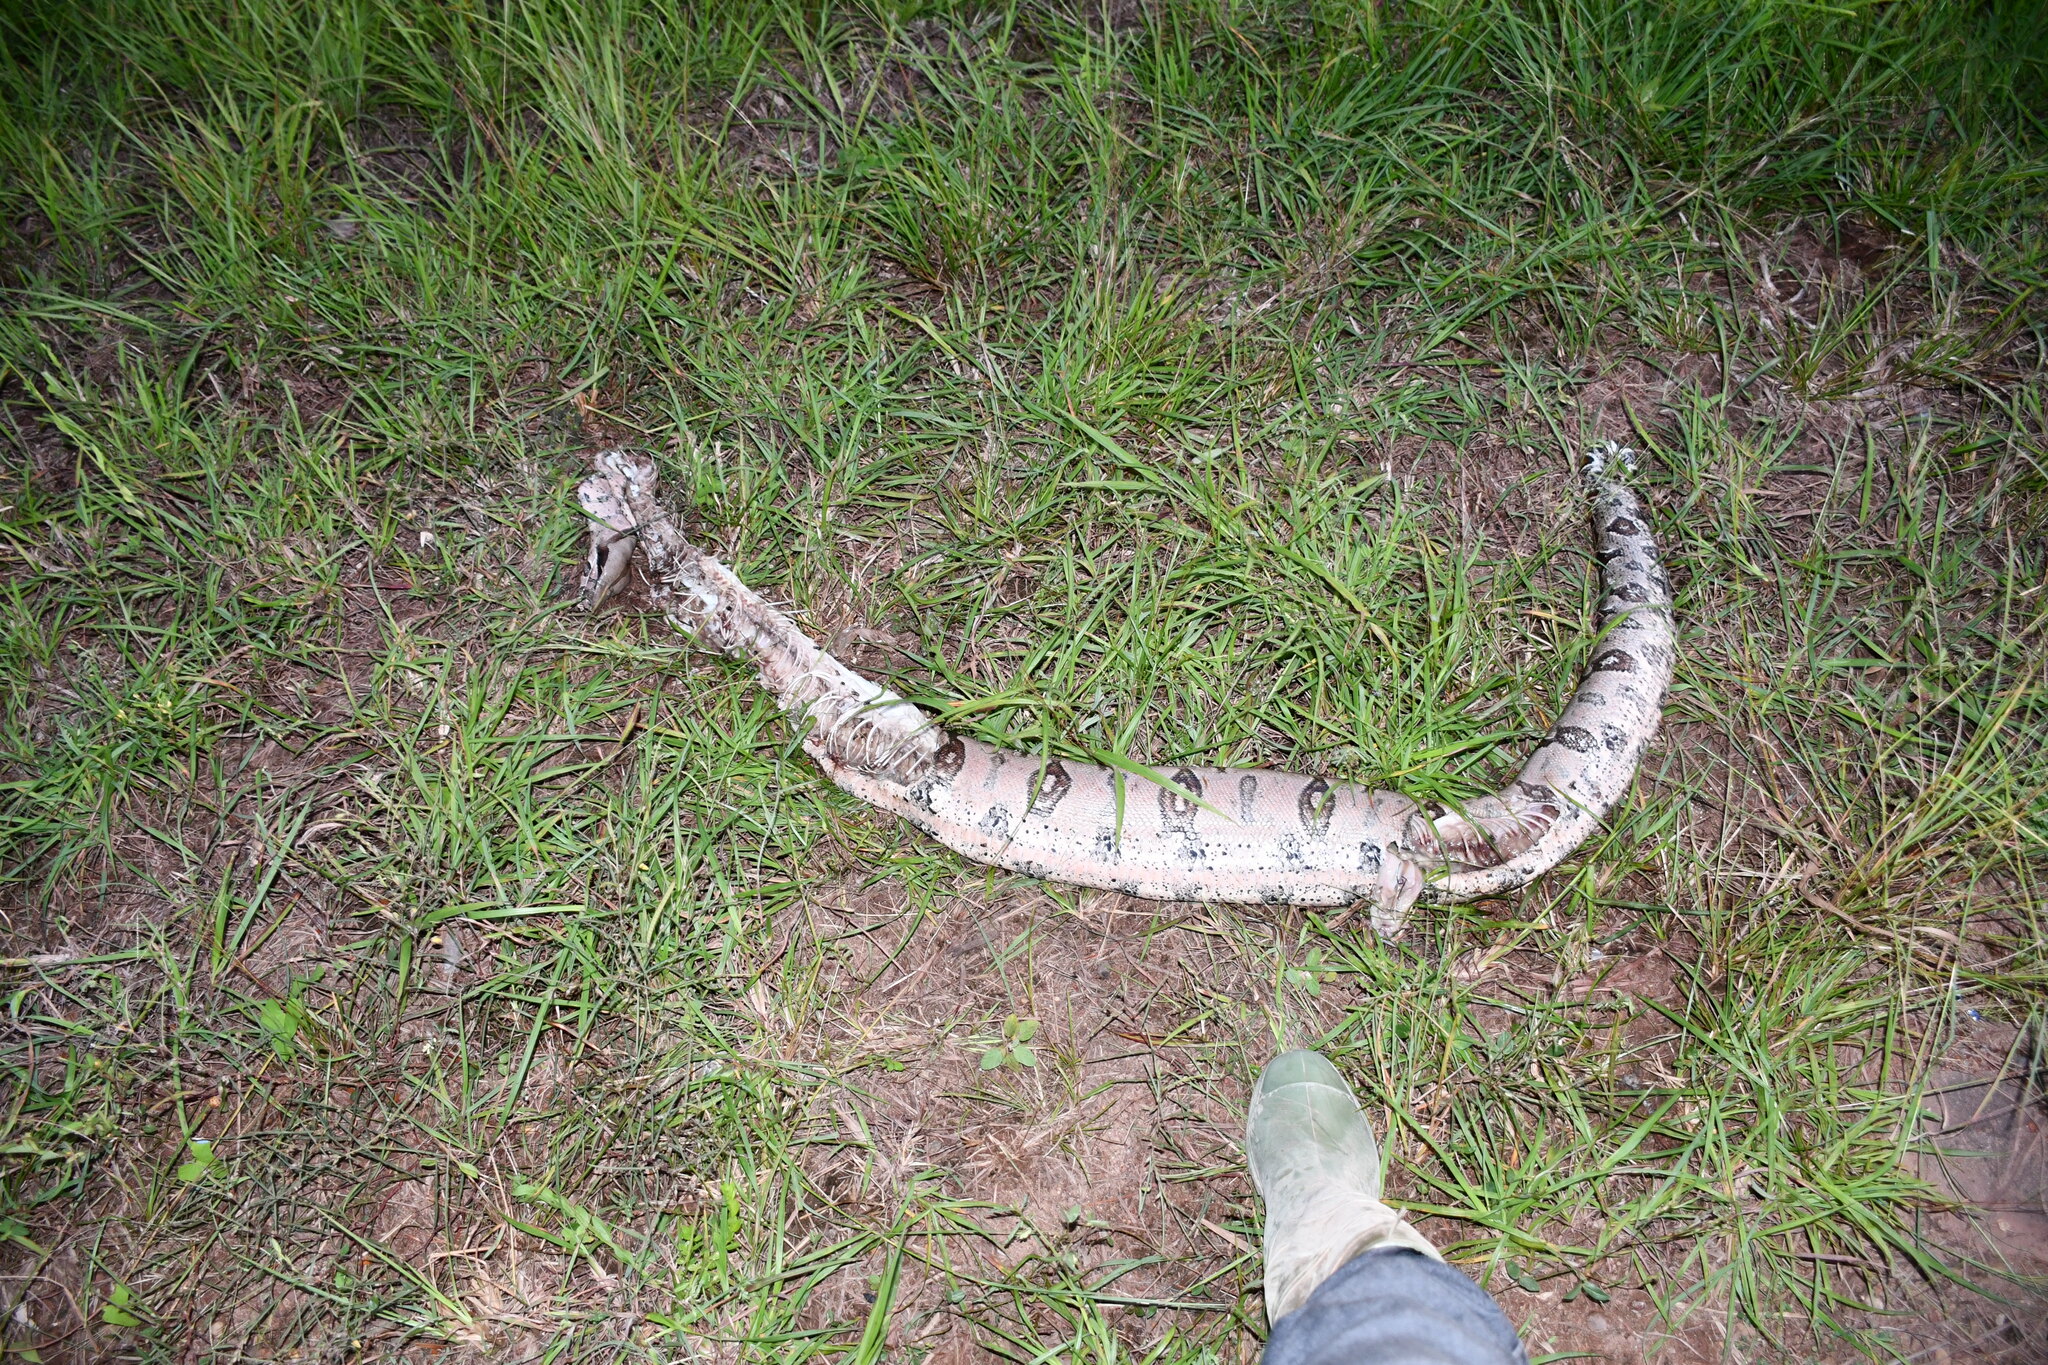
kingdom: Animalia
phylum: Chordata
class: Squamata
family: Boidae
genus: Boa
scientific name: Boa constrictor
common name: Boa constrictor
